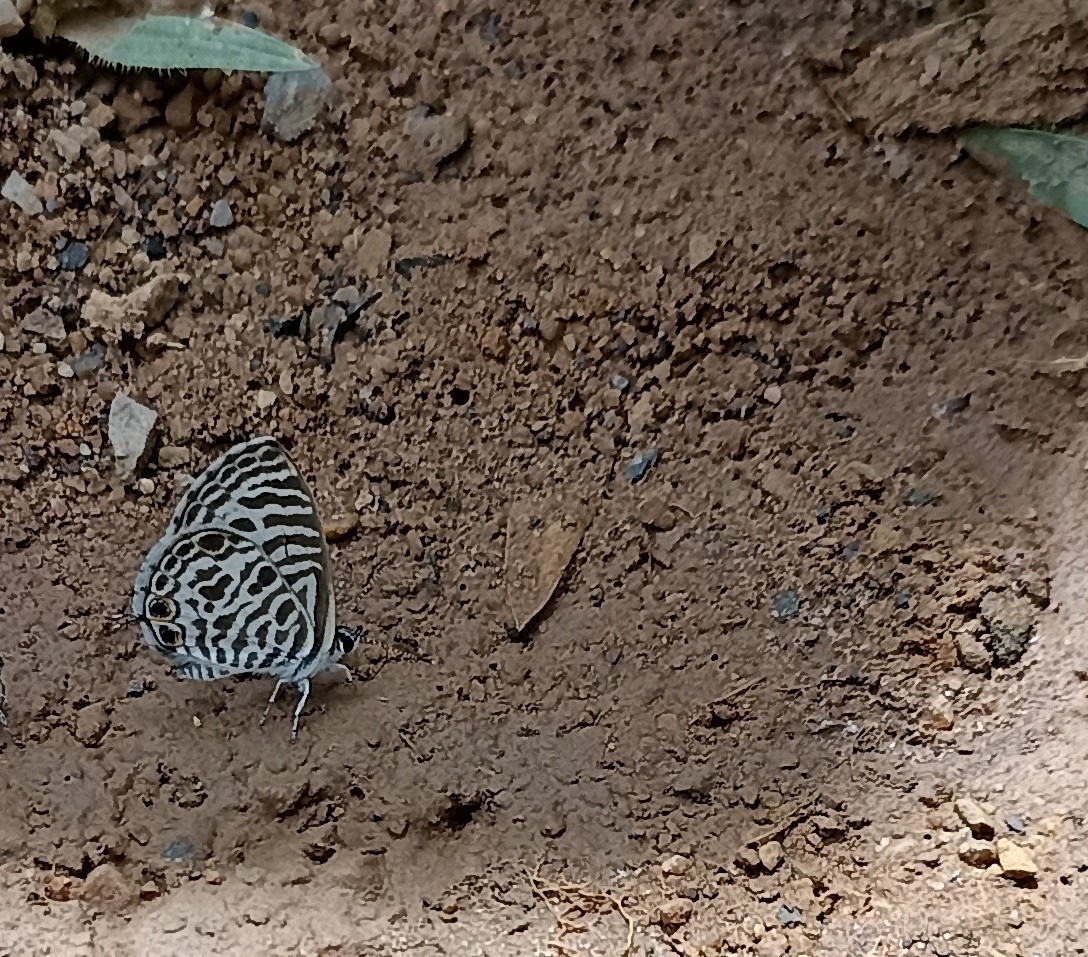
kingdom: Animalia
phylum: Arthropoda
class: Insecta
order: Lepidoptera
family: Lycaenidae
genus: Leptotes
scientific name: Leptotes plinius
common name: Zebra blue
